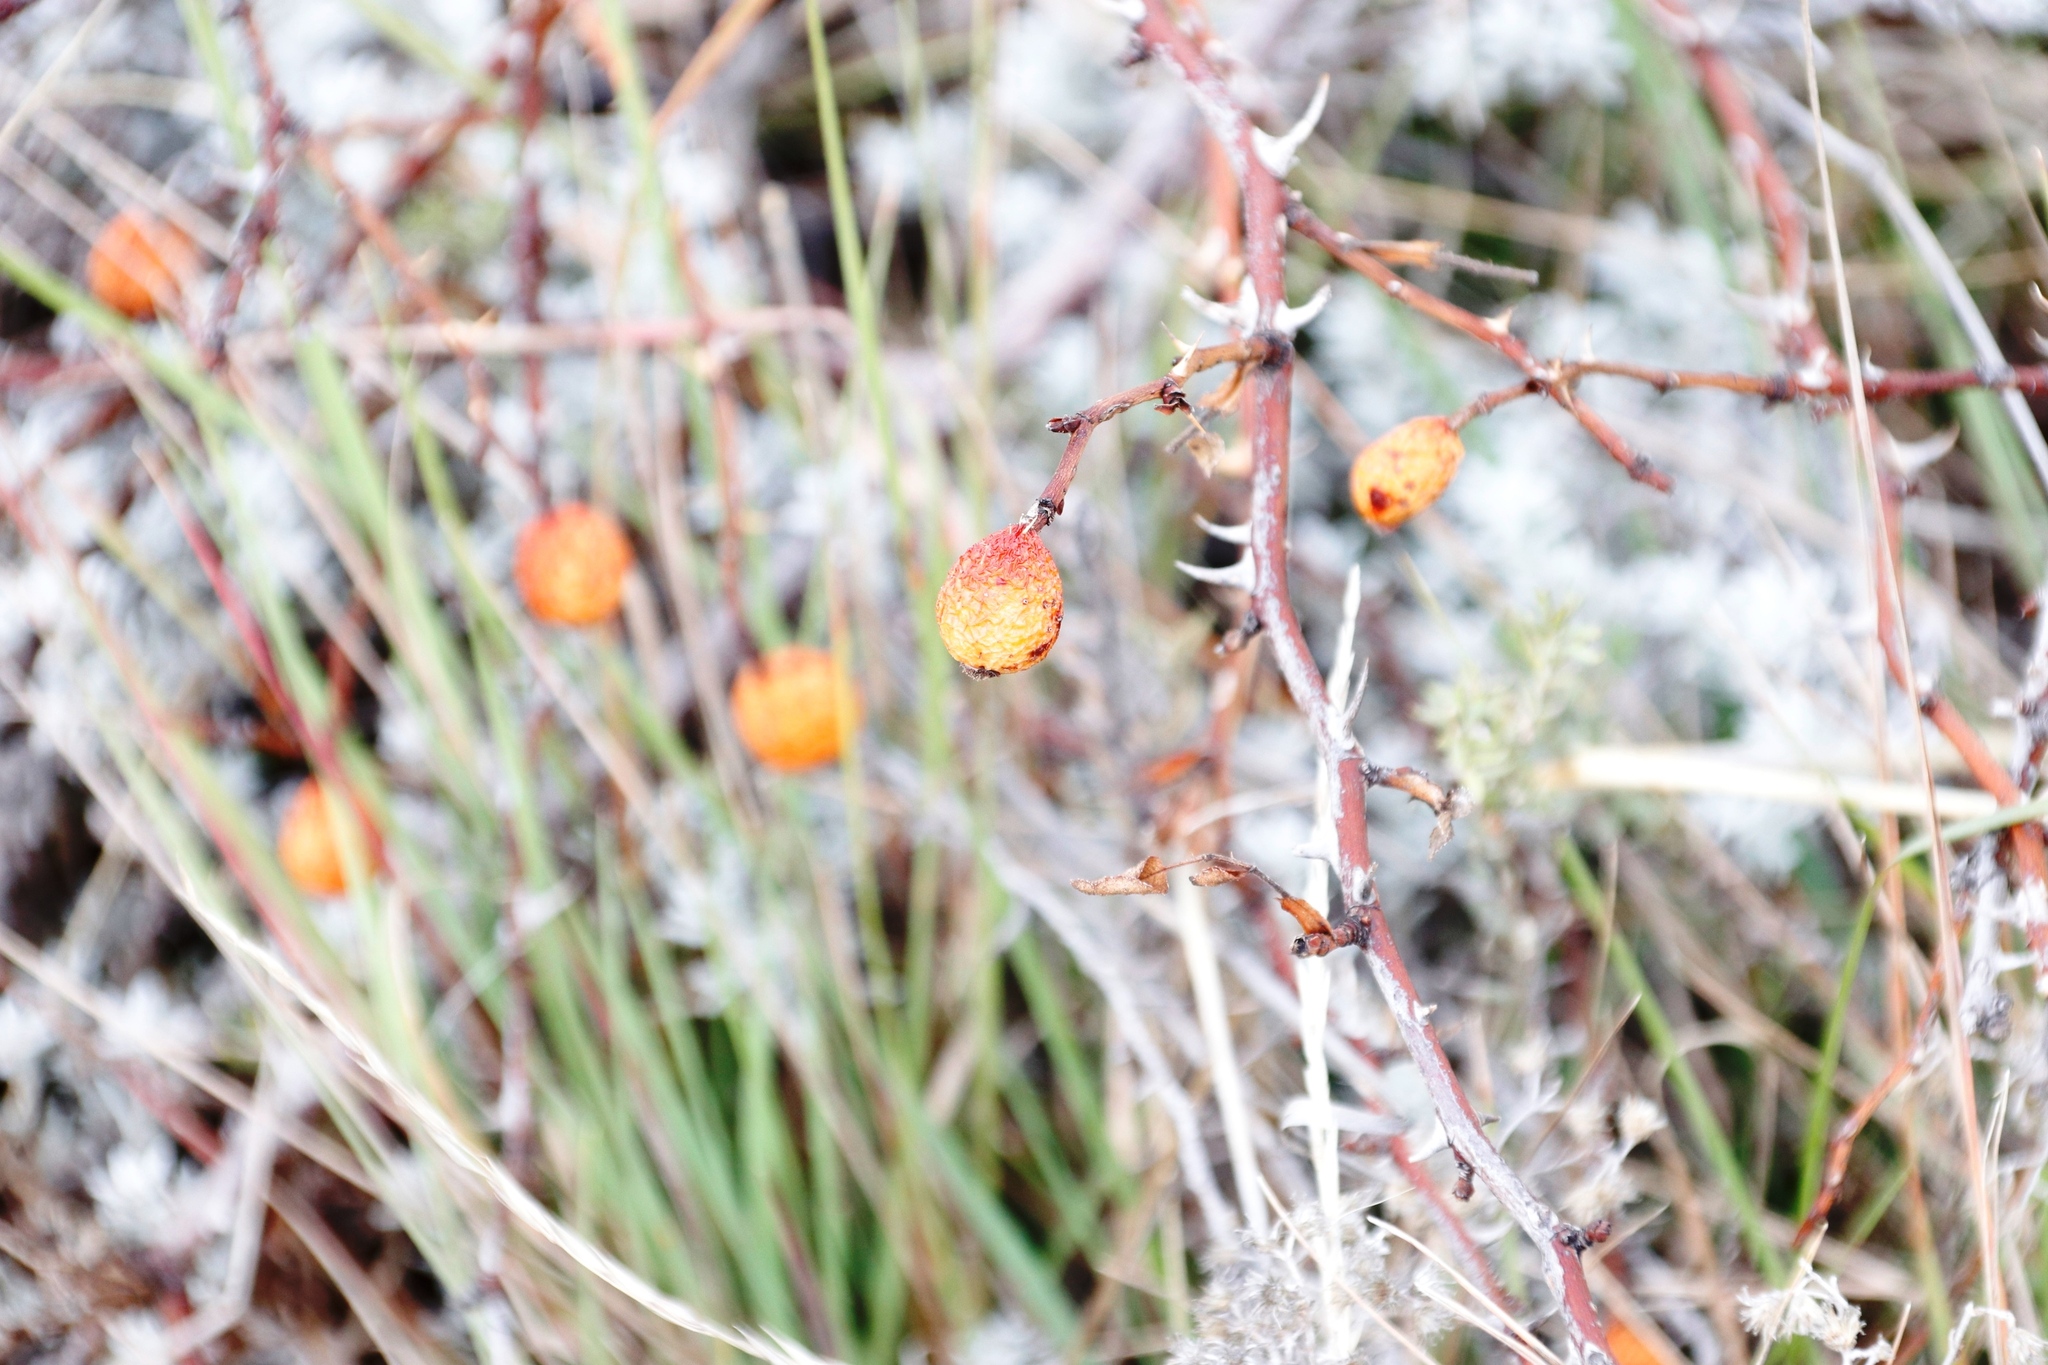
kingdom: Plantae
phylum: Tracheophyta
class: Magnoliopsida
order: Rosales
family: Rosaceae
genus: Rosa
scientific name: Rosa rubiginosa
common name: Sweet-briar
